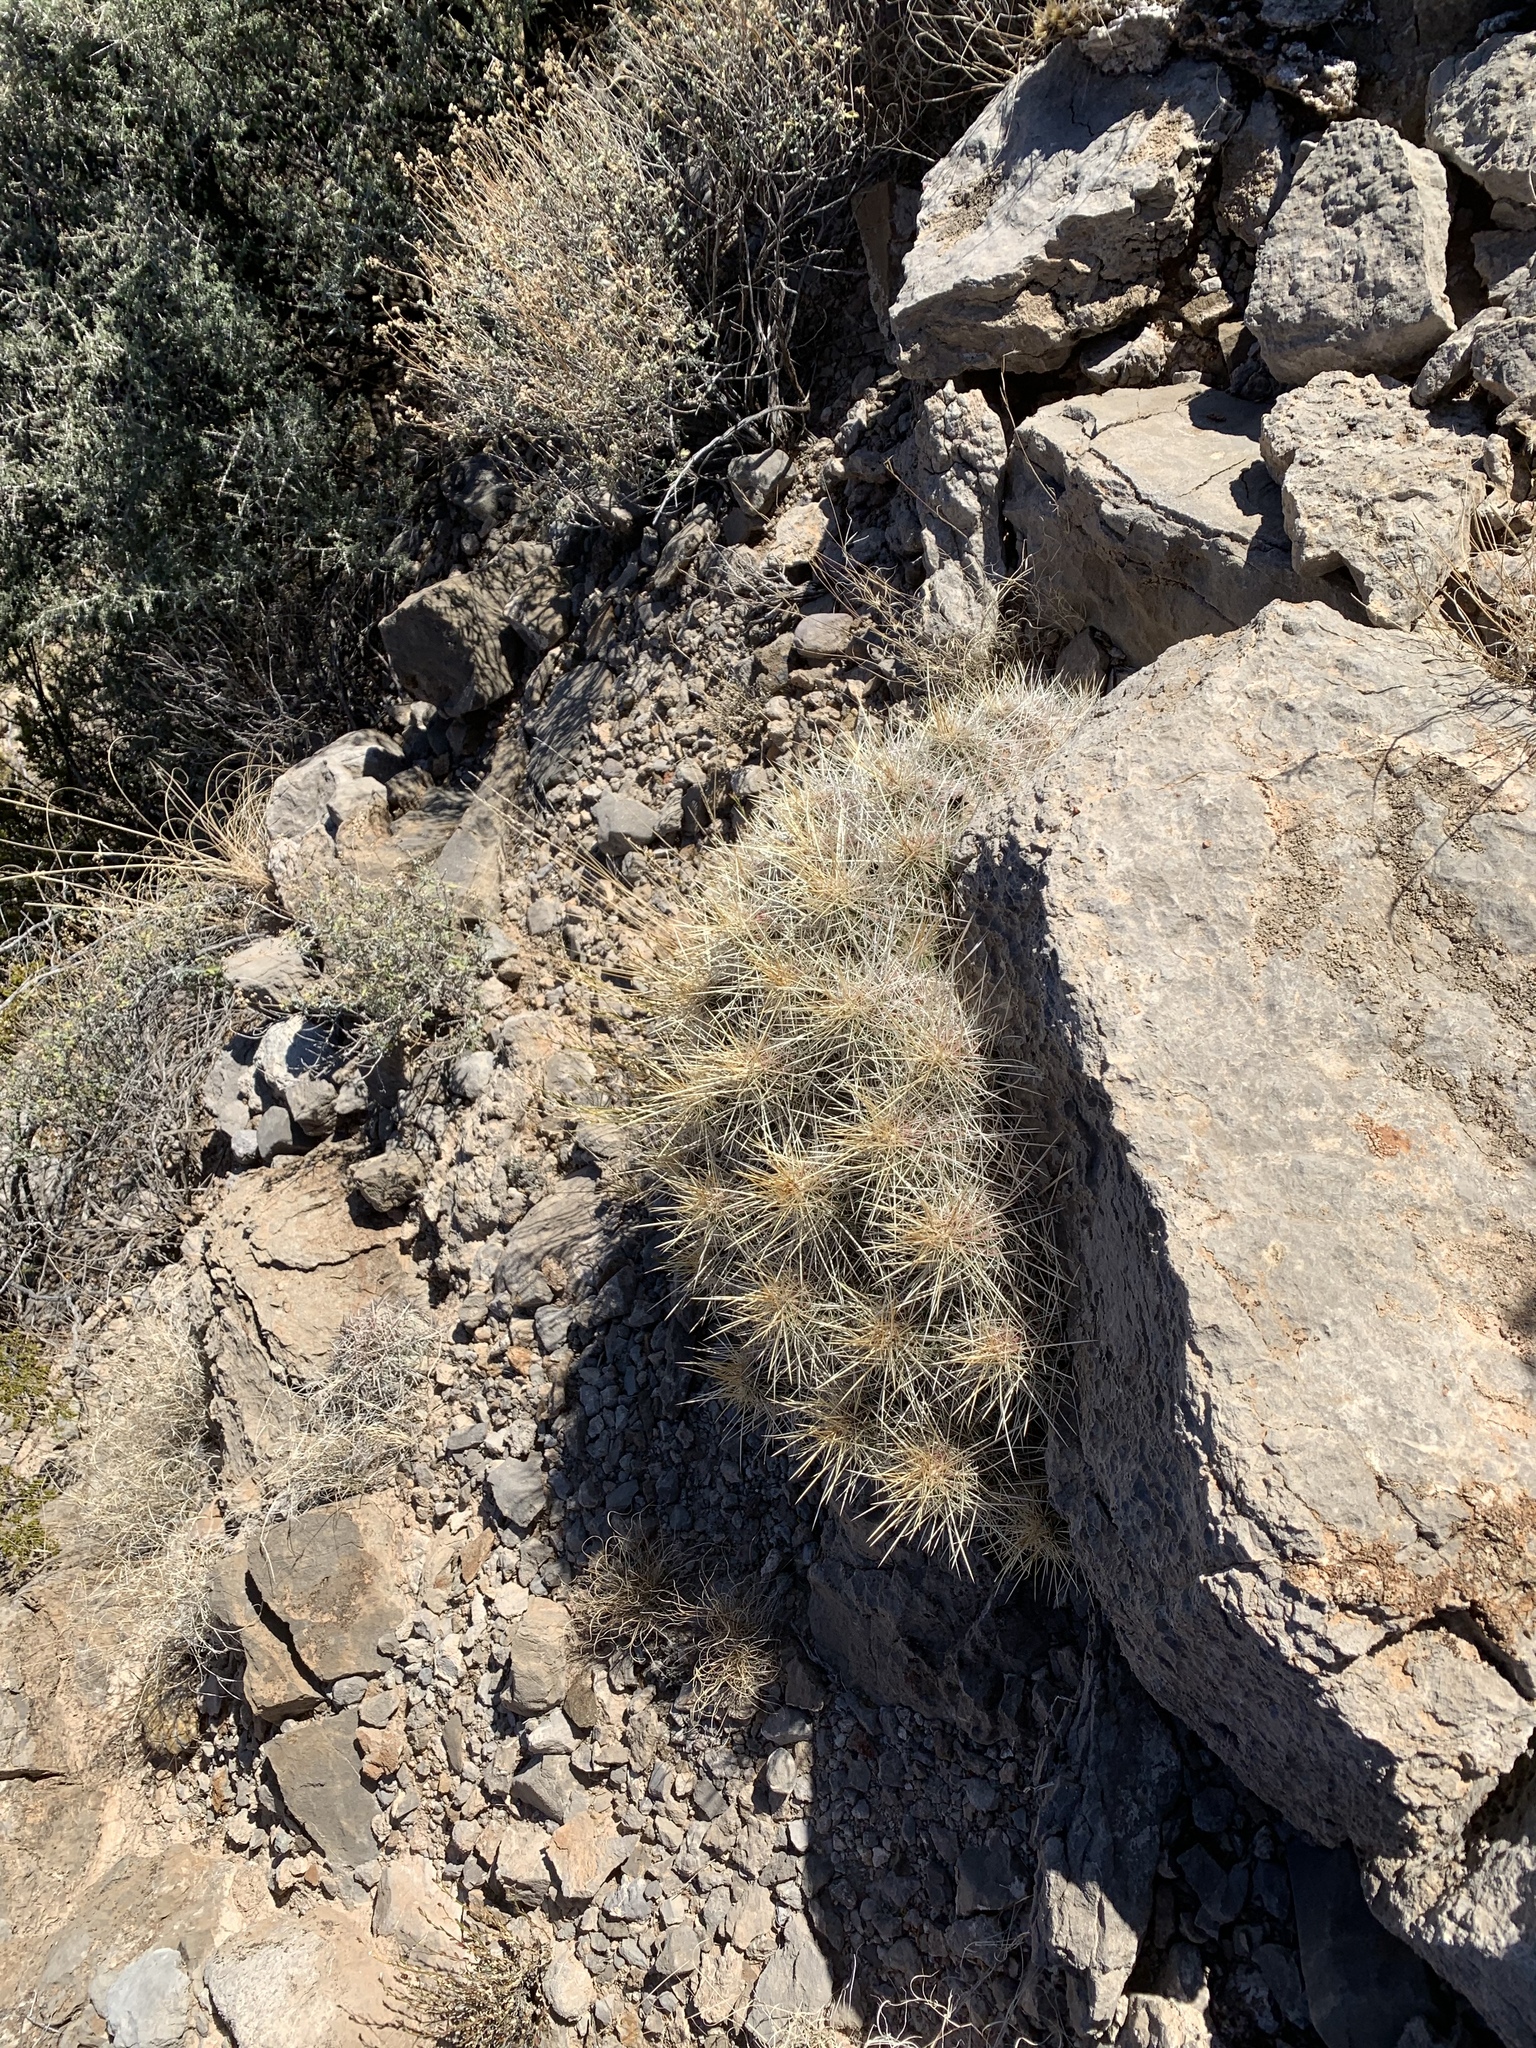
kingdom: Plantae
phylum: Tracheophyta
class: Magnoliopsida
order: Caryophyllales
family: Cactaceae
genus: Echinocereus
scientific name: Echinocereus stramineus
